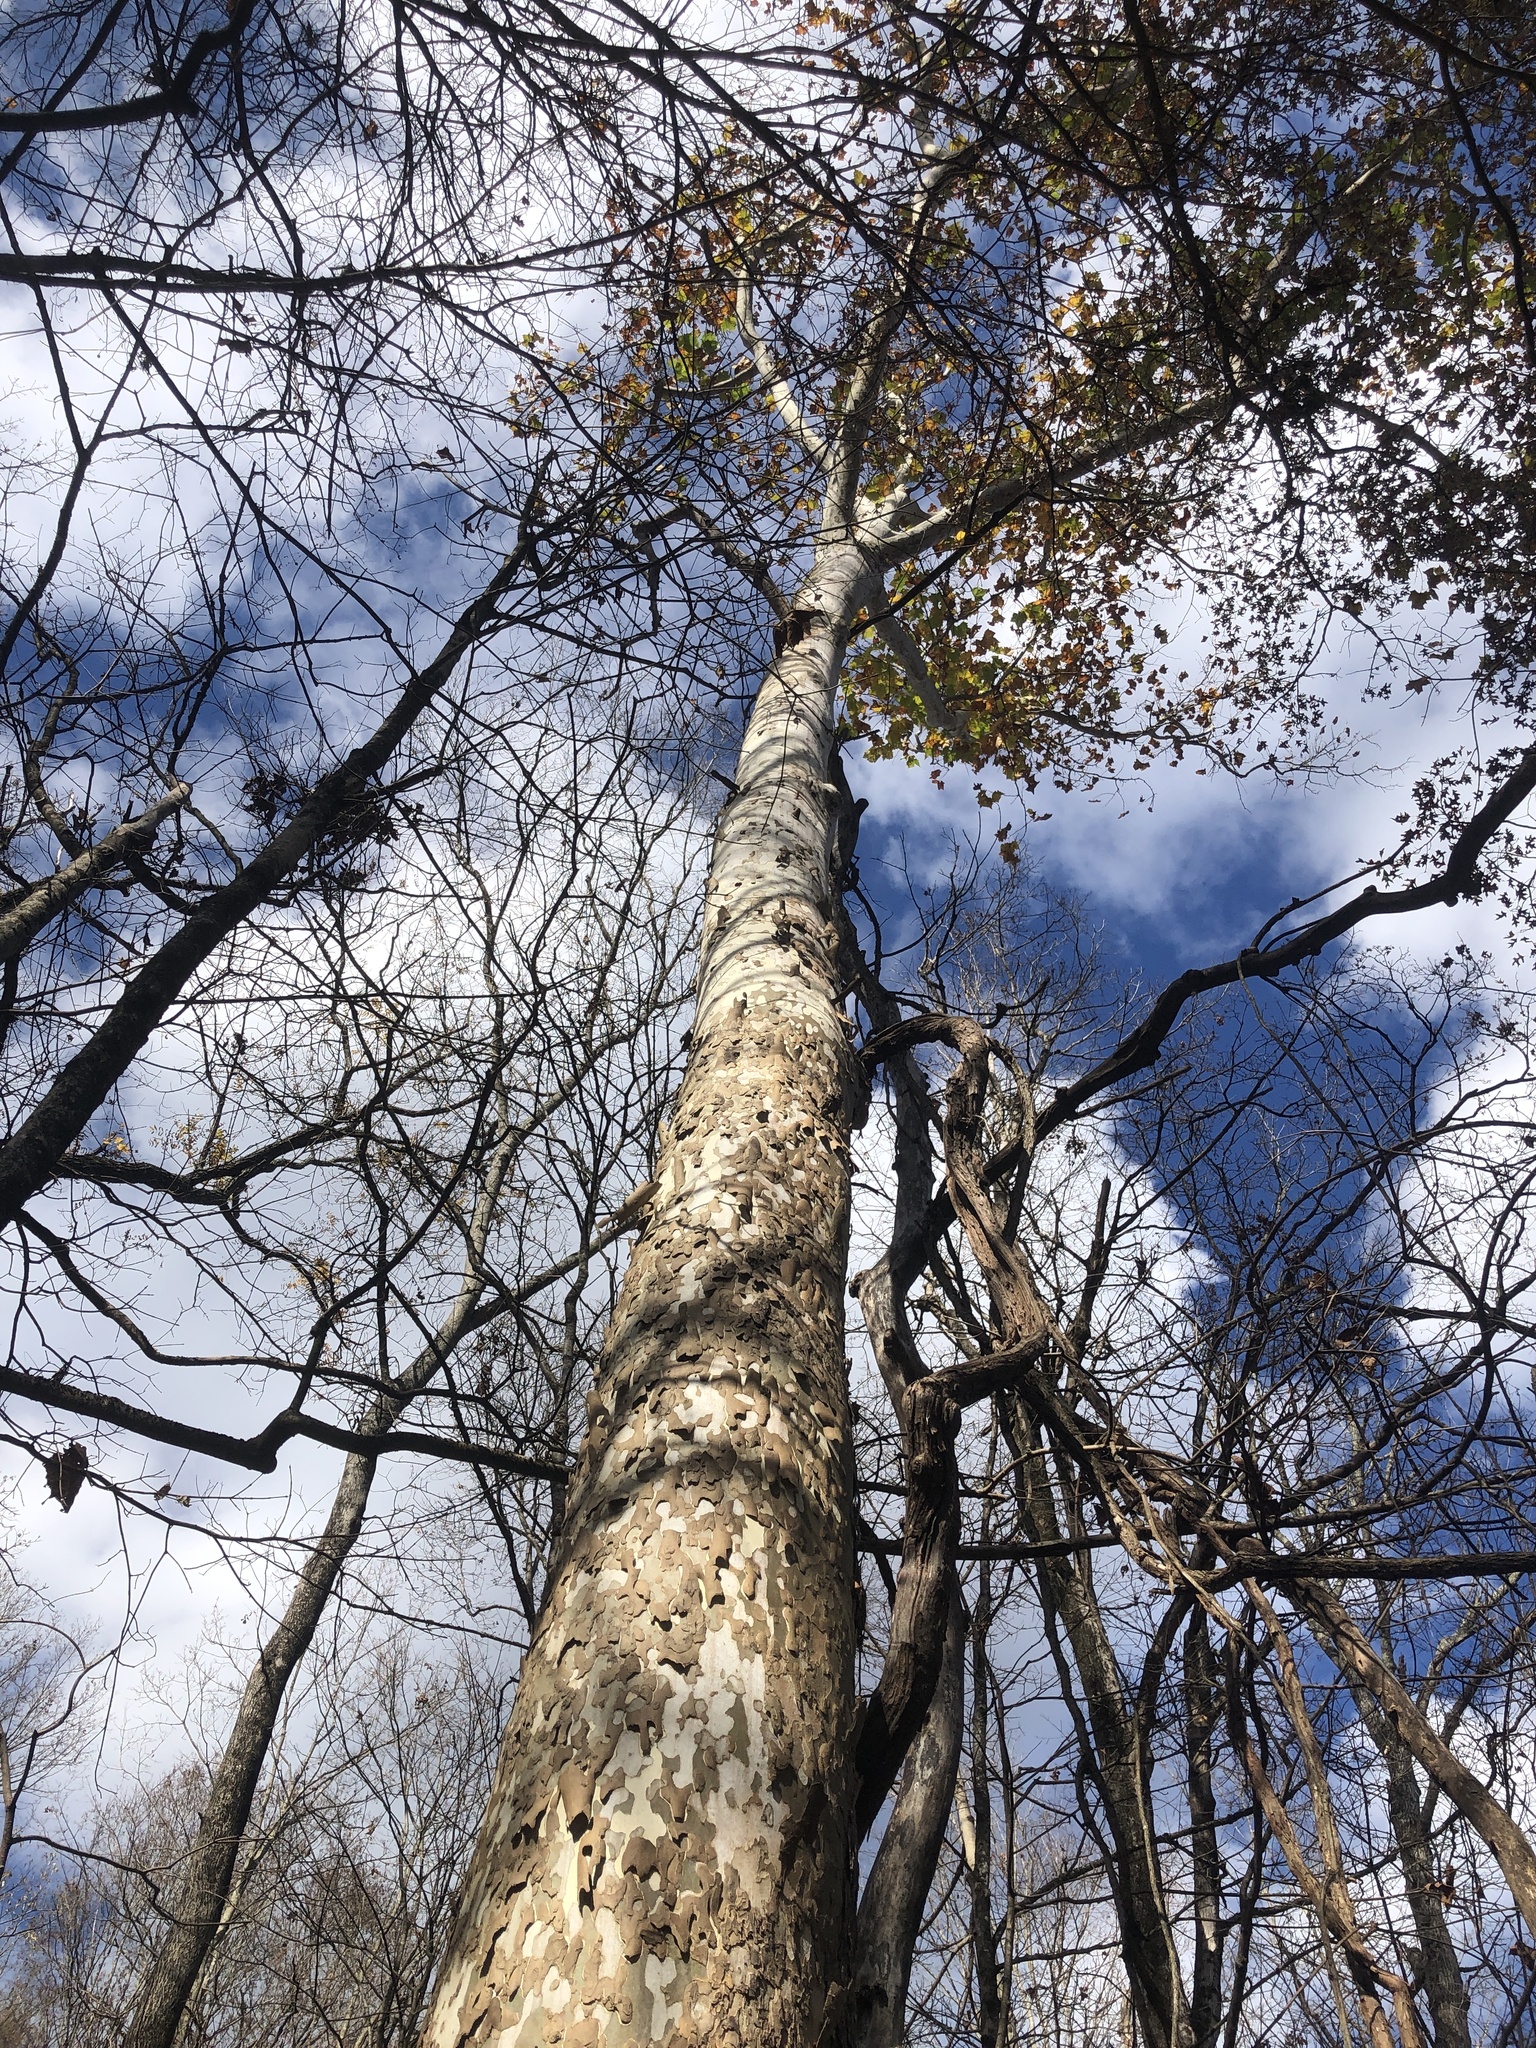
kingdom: Plantae
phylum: Tracheophyta
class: Magnoliopsida
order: Proteales
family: Platanaceae
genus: Platanus
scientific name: Platanus occidentalis
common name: American sycamore
